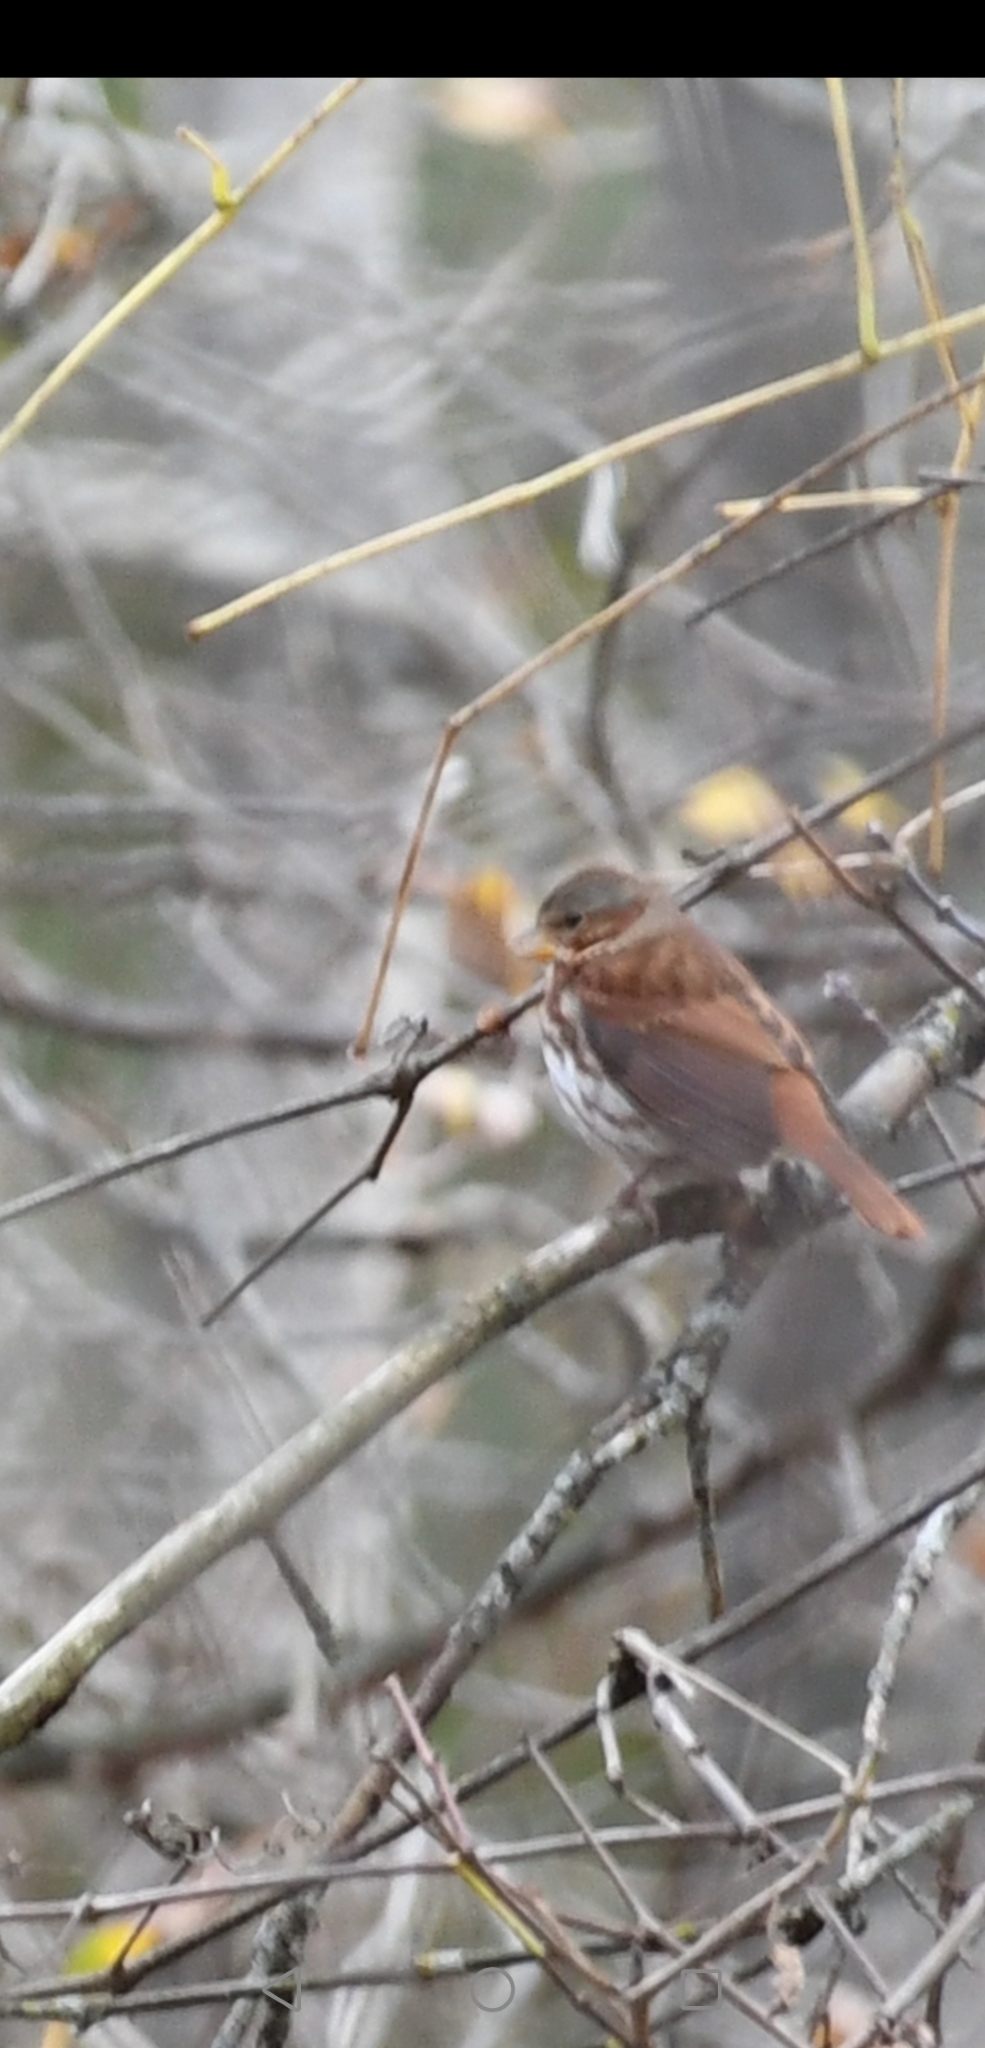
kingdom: Animalia
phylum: Chordata
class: Aves
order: Passeriformes
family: Passerellidae
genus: Passerella
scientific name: Passerella iliaca
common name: Fox sparrow
